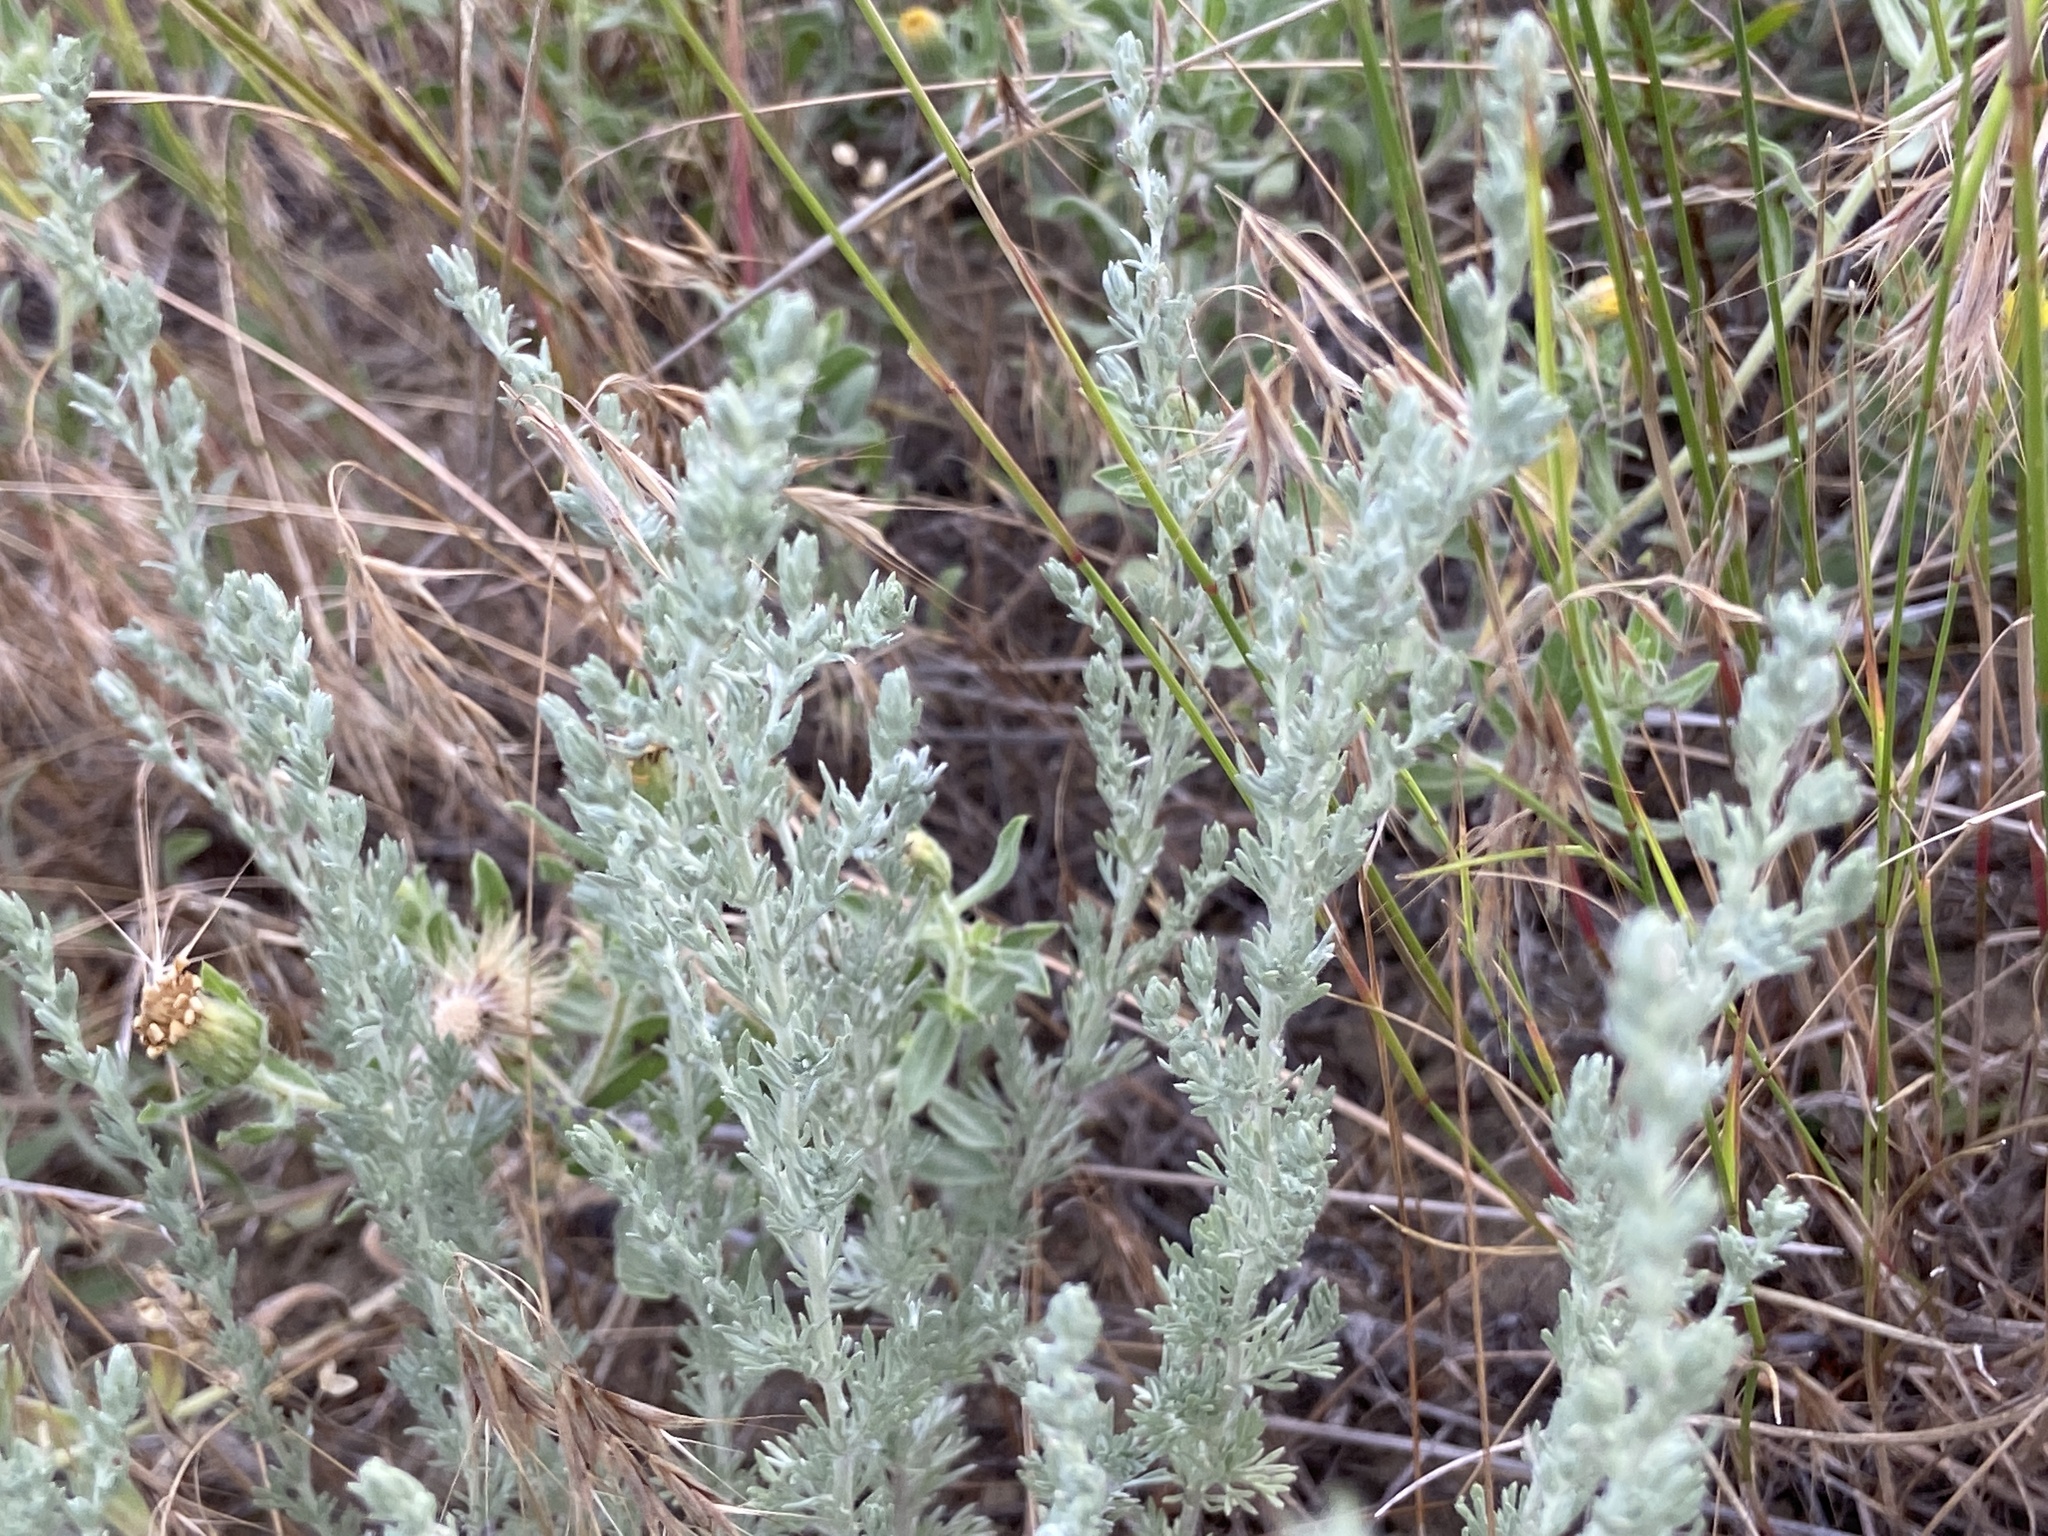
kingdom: Plantae
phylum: Tracheophyta
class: Magnoliopsida
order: Asterales
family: Asteraceae
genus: Artemisia
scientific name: Artemisia frigida
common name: Prairie sagewort
